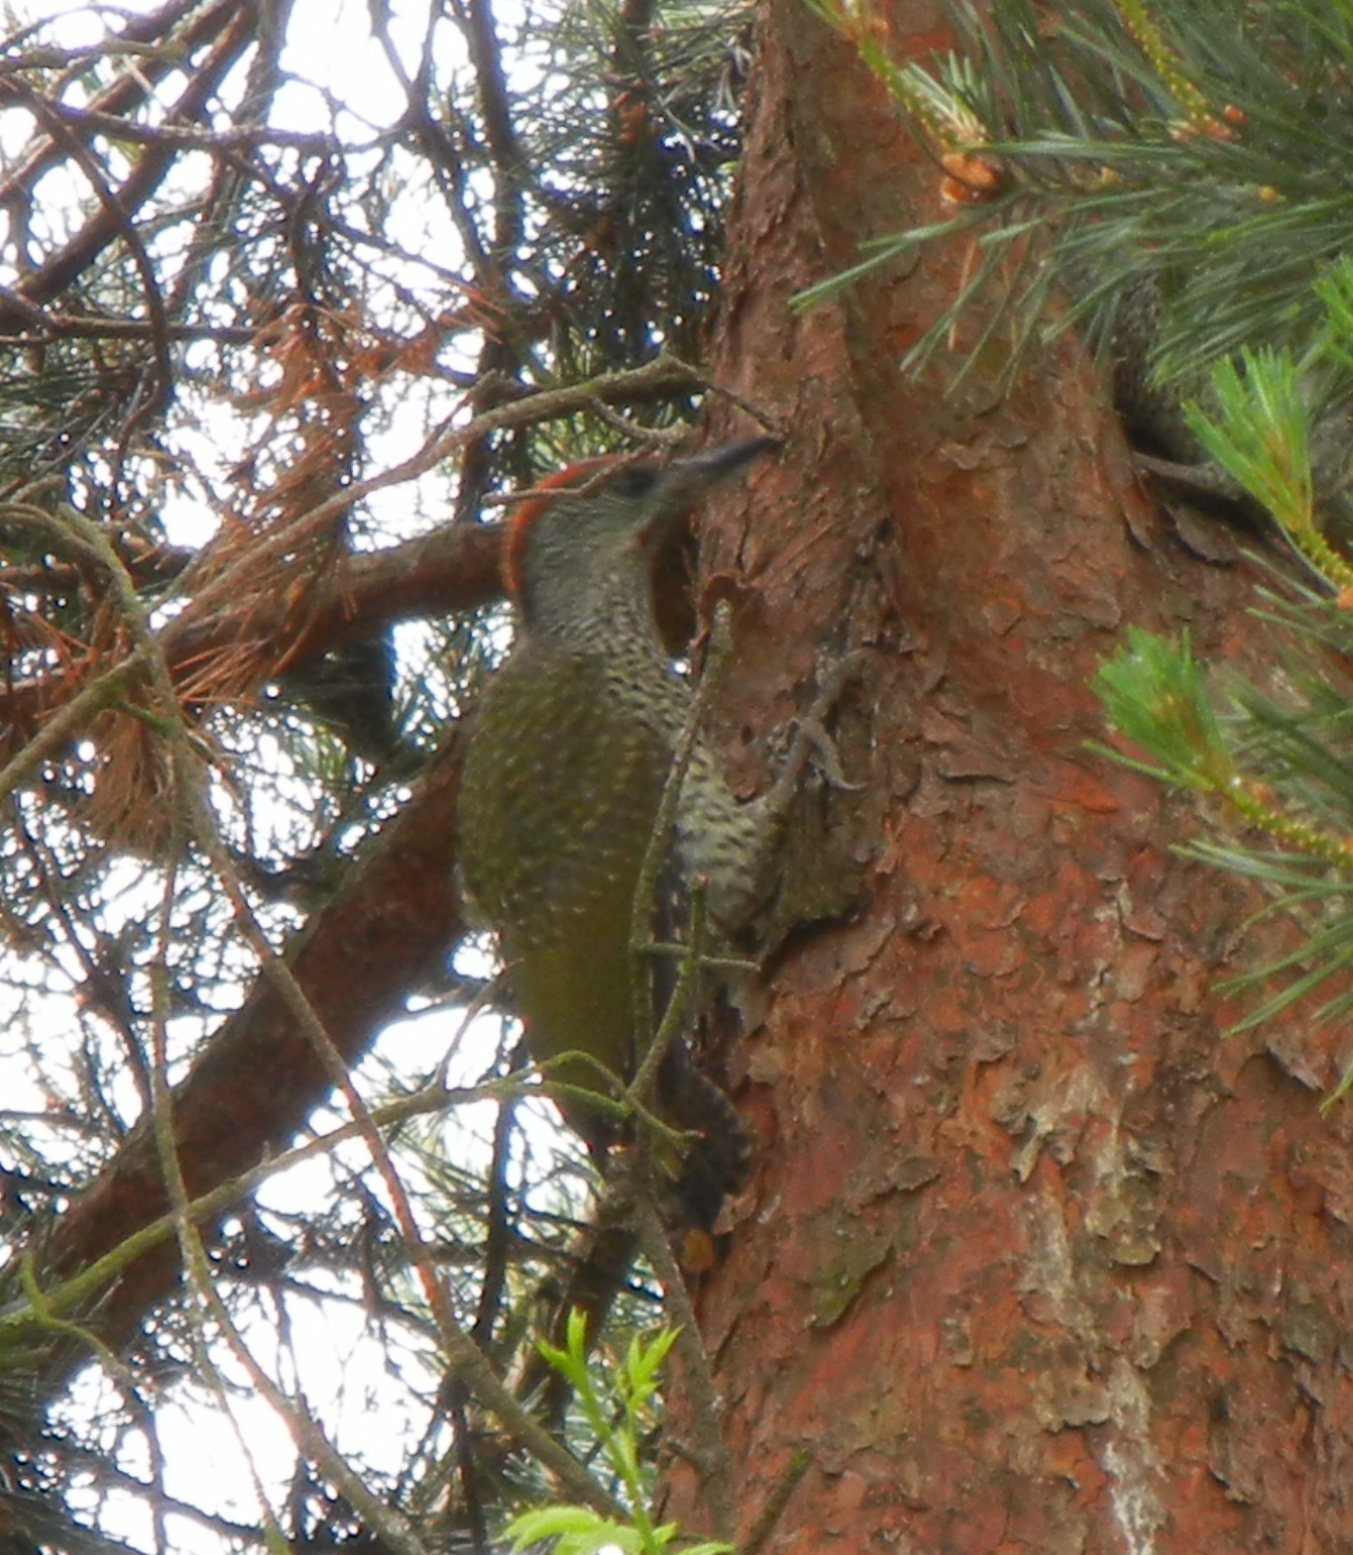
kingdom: Animalia
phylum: Chordata
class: Aves
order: Piciformes
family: Picidae
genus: Picus
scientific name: Picus viridis
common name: European green woodpecker
